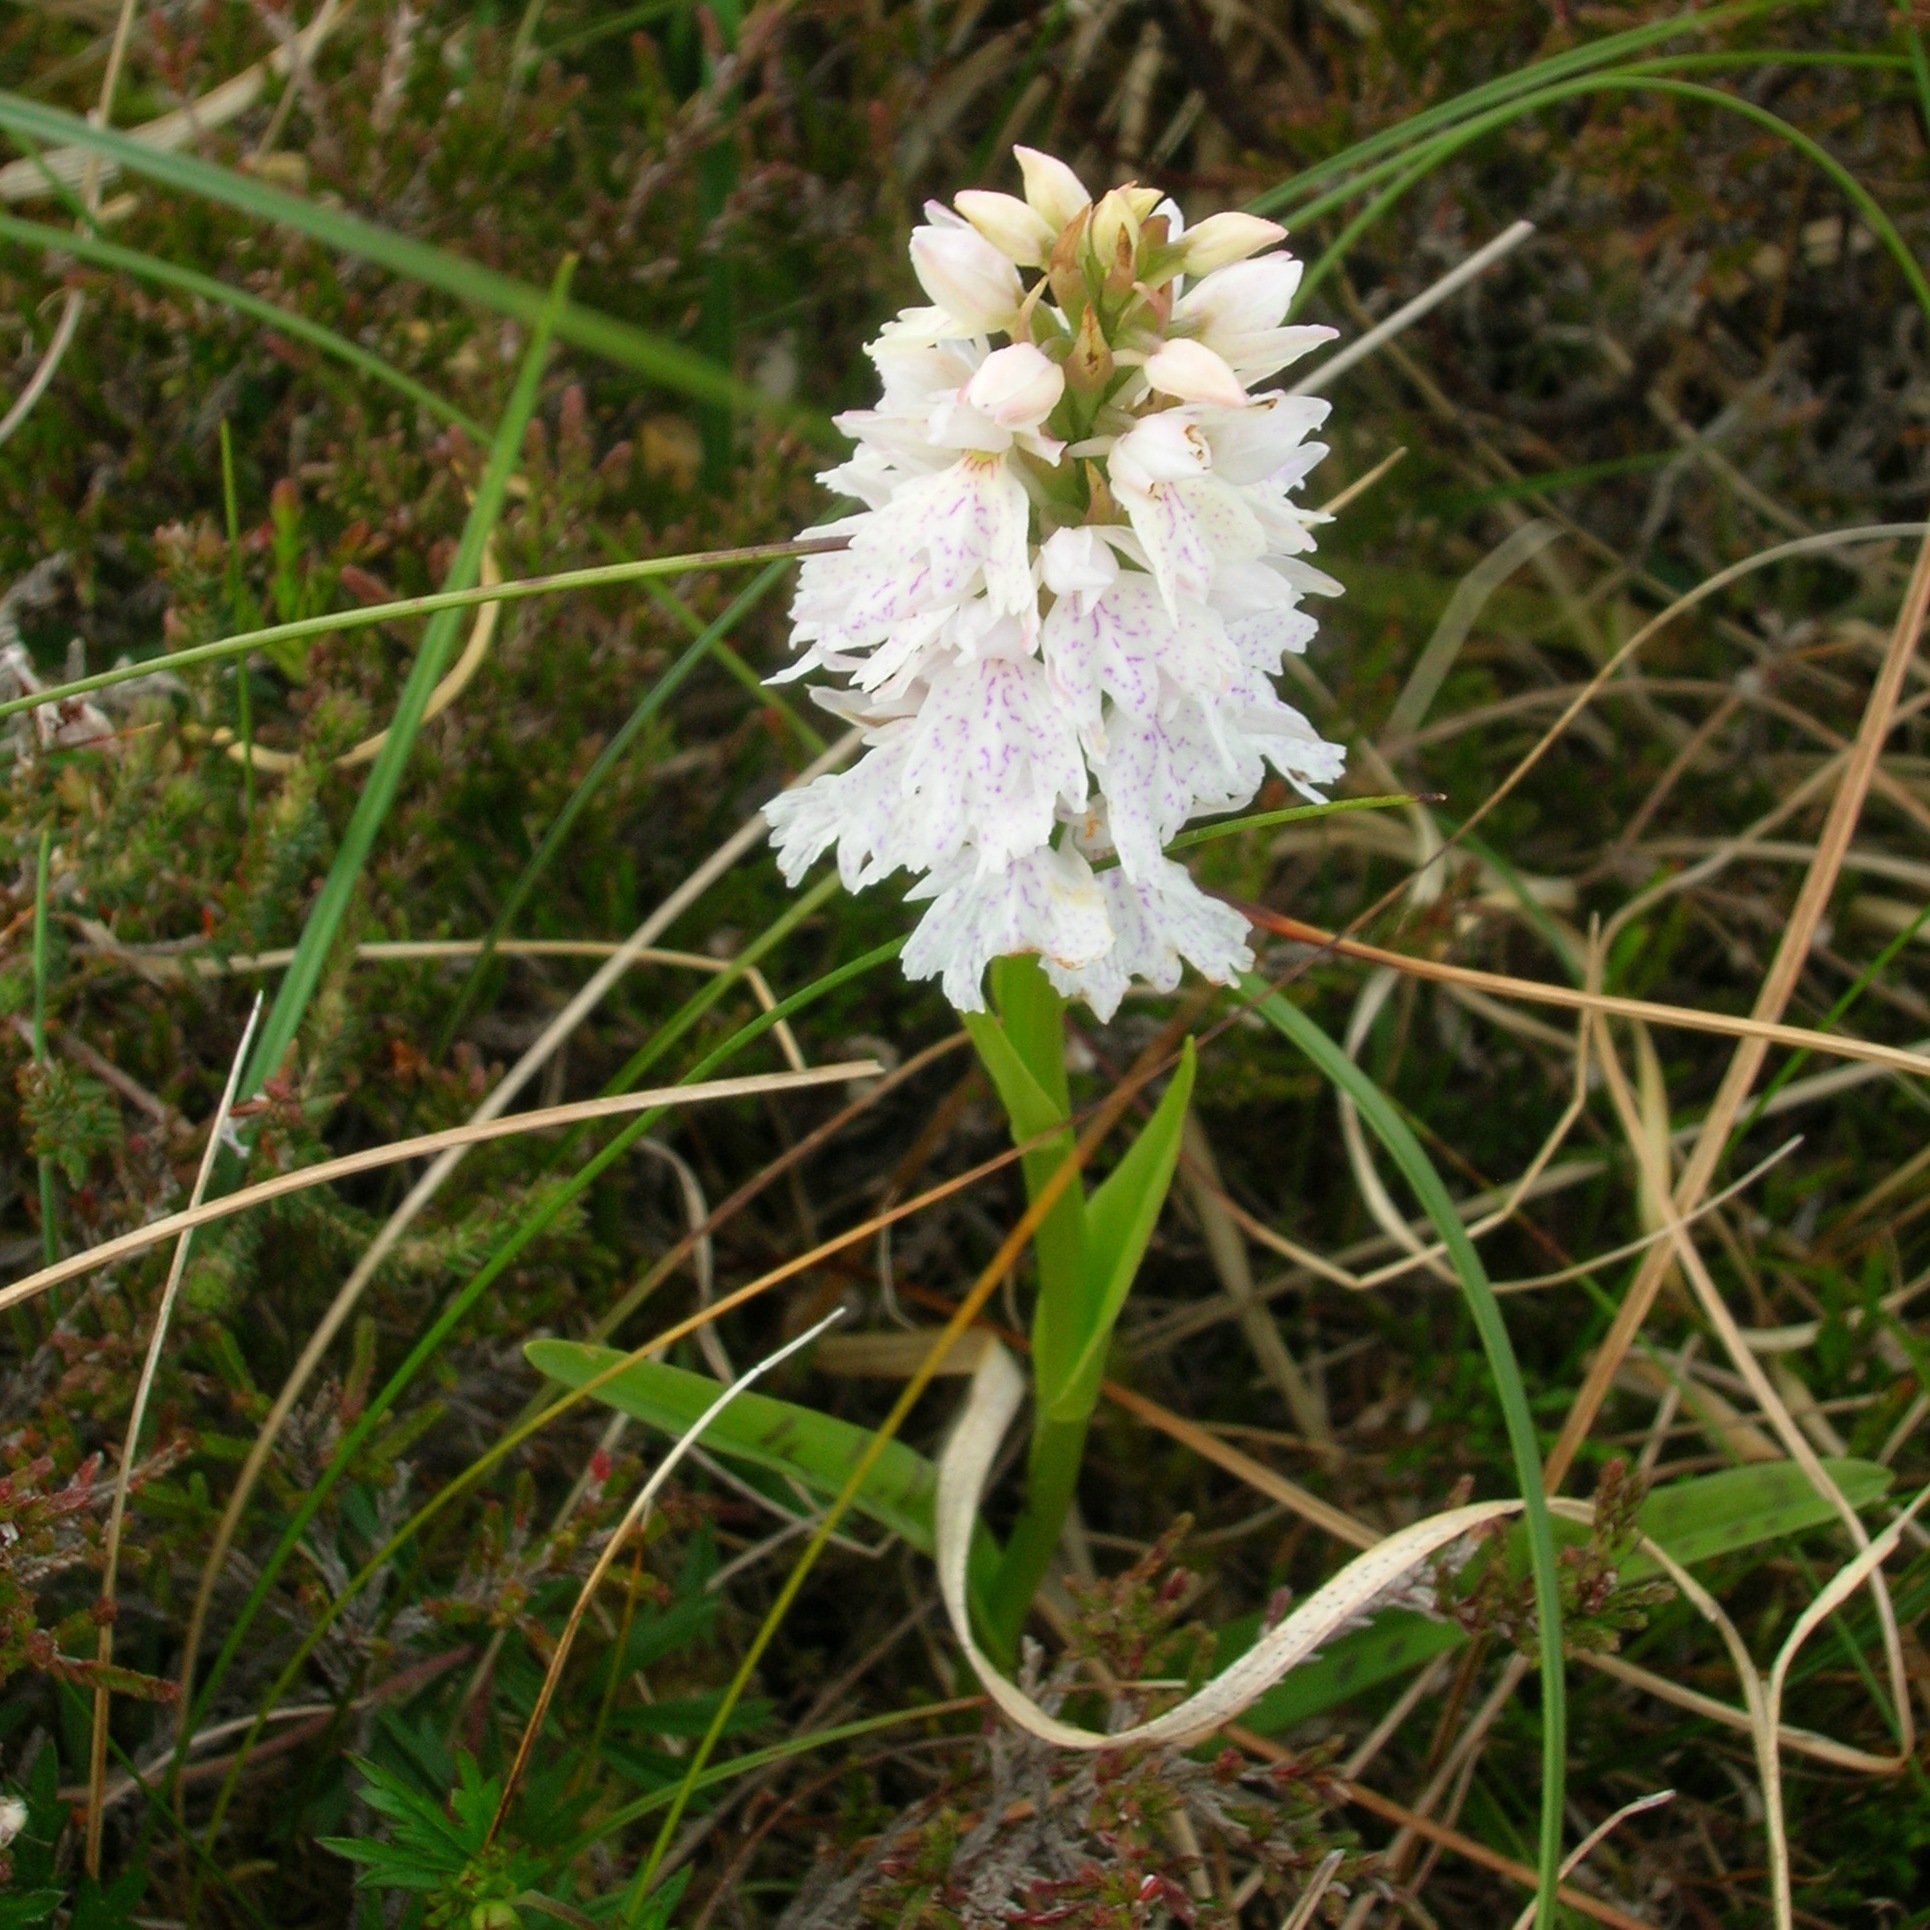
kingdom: Plantae
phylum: Tracheophyta
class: Liliopsida
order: Asparagales
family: Orchidaceae
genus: Dactylorhiza
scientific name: Dactylorhiza maculata
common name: Heath spotted-orchid
